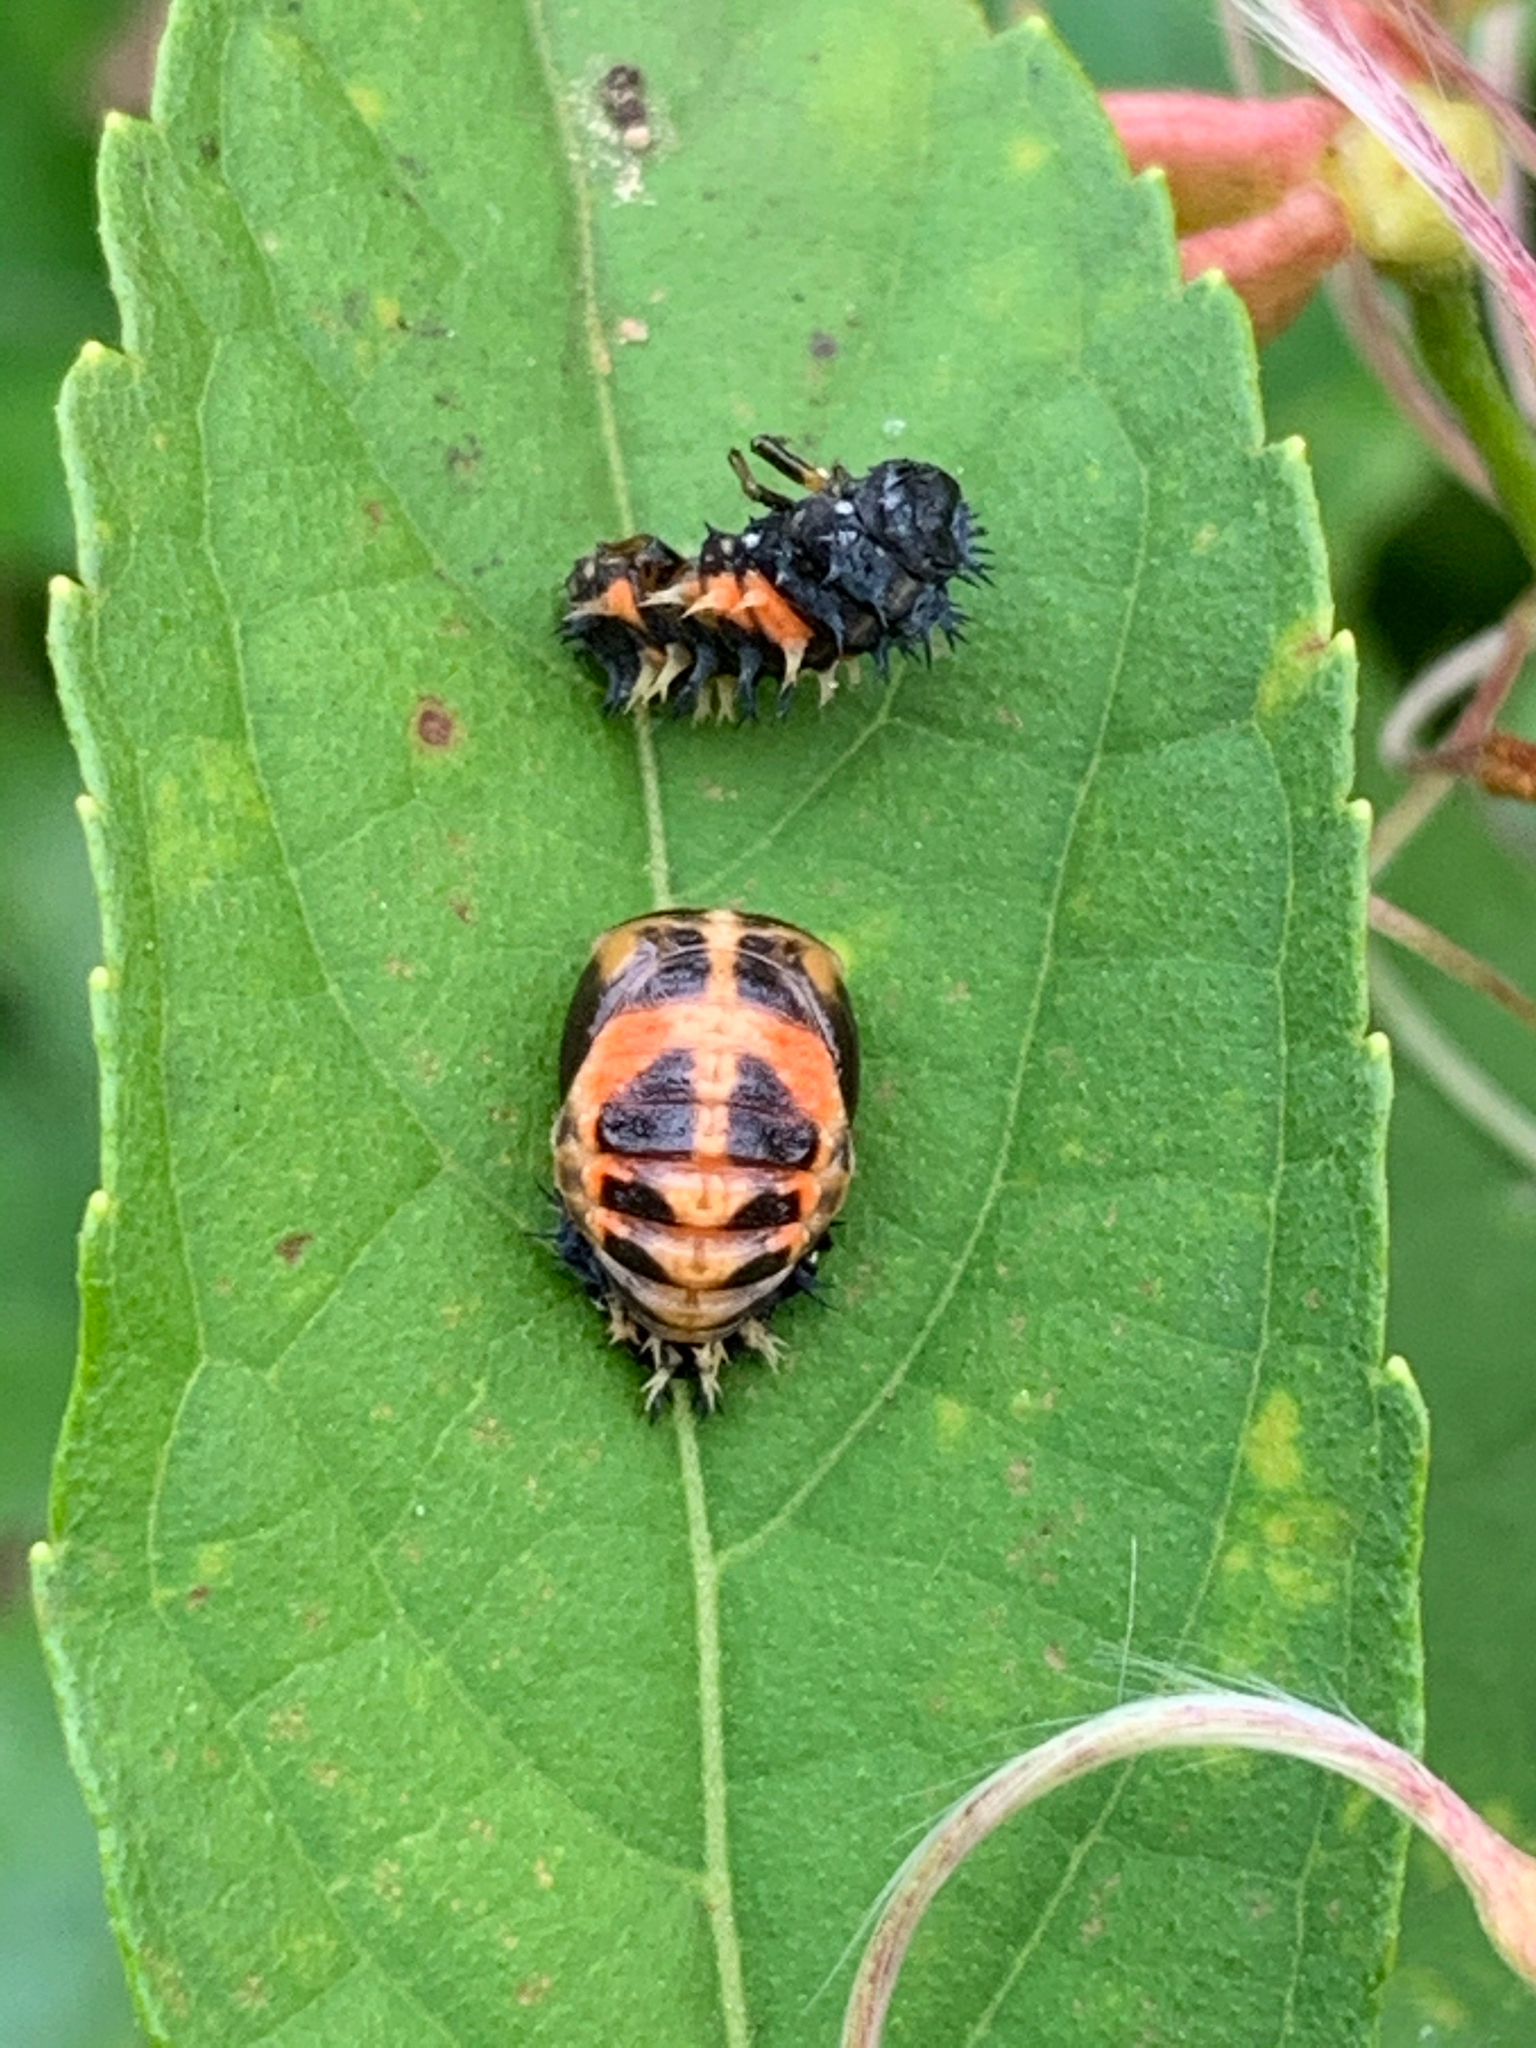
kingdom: Animalia
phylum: Arthropoda
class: Insecta
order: Coleoptera
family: Coccinellidae
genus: Harmonia
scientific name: Harmonia axyridis
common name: Harlequin ladybird
